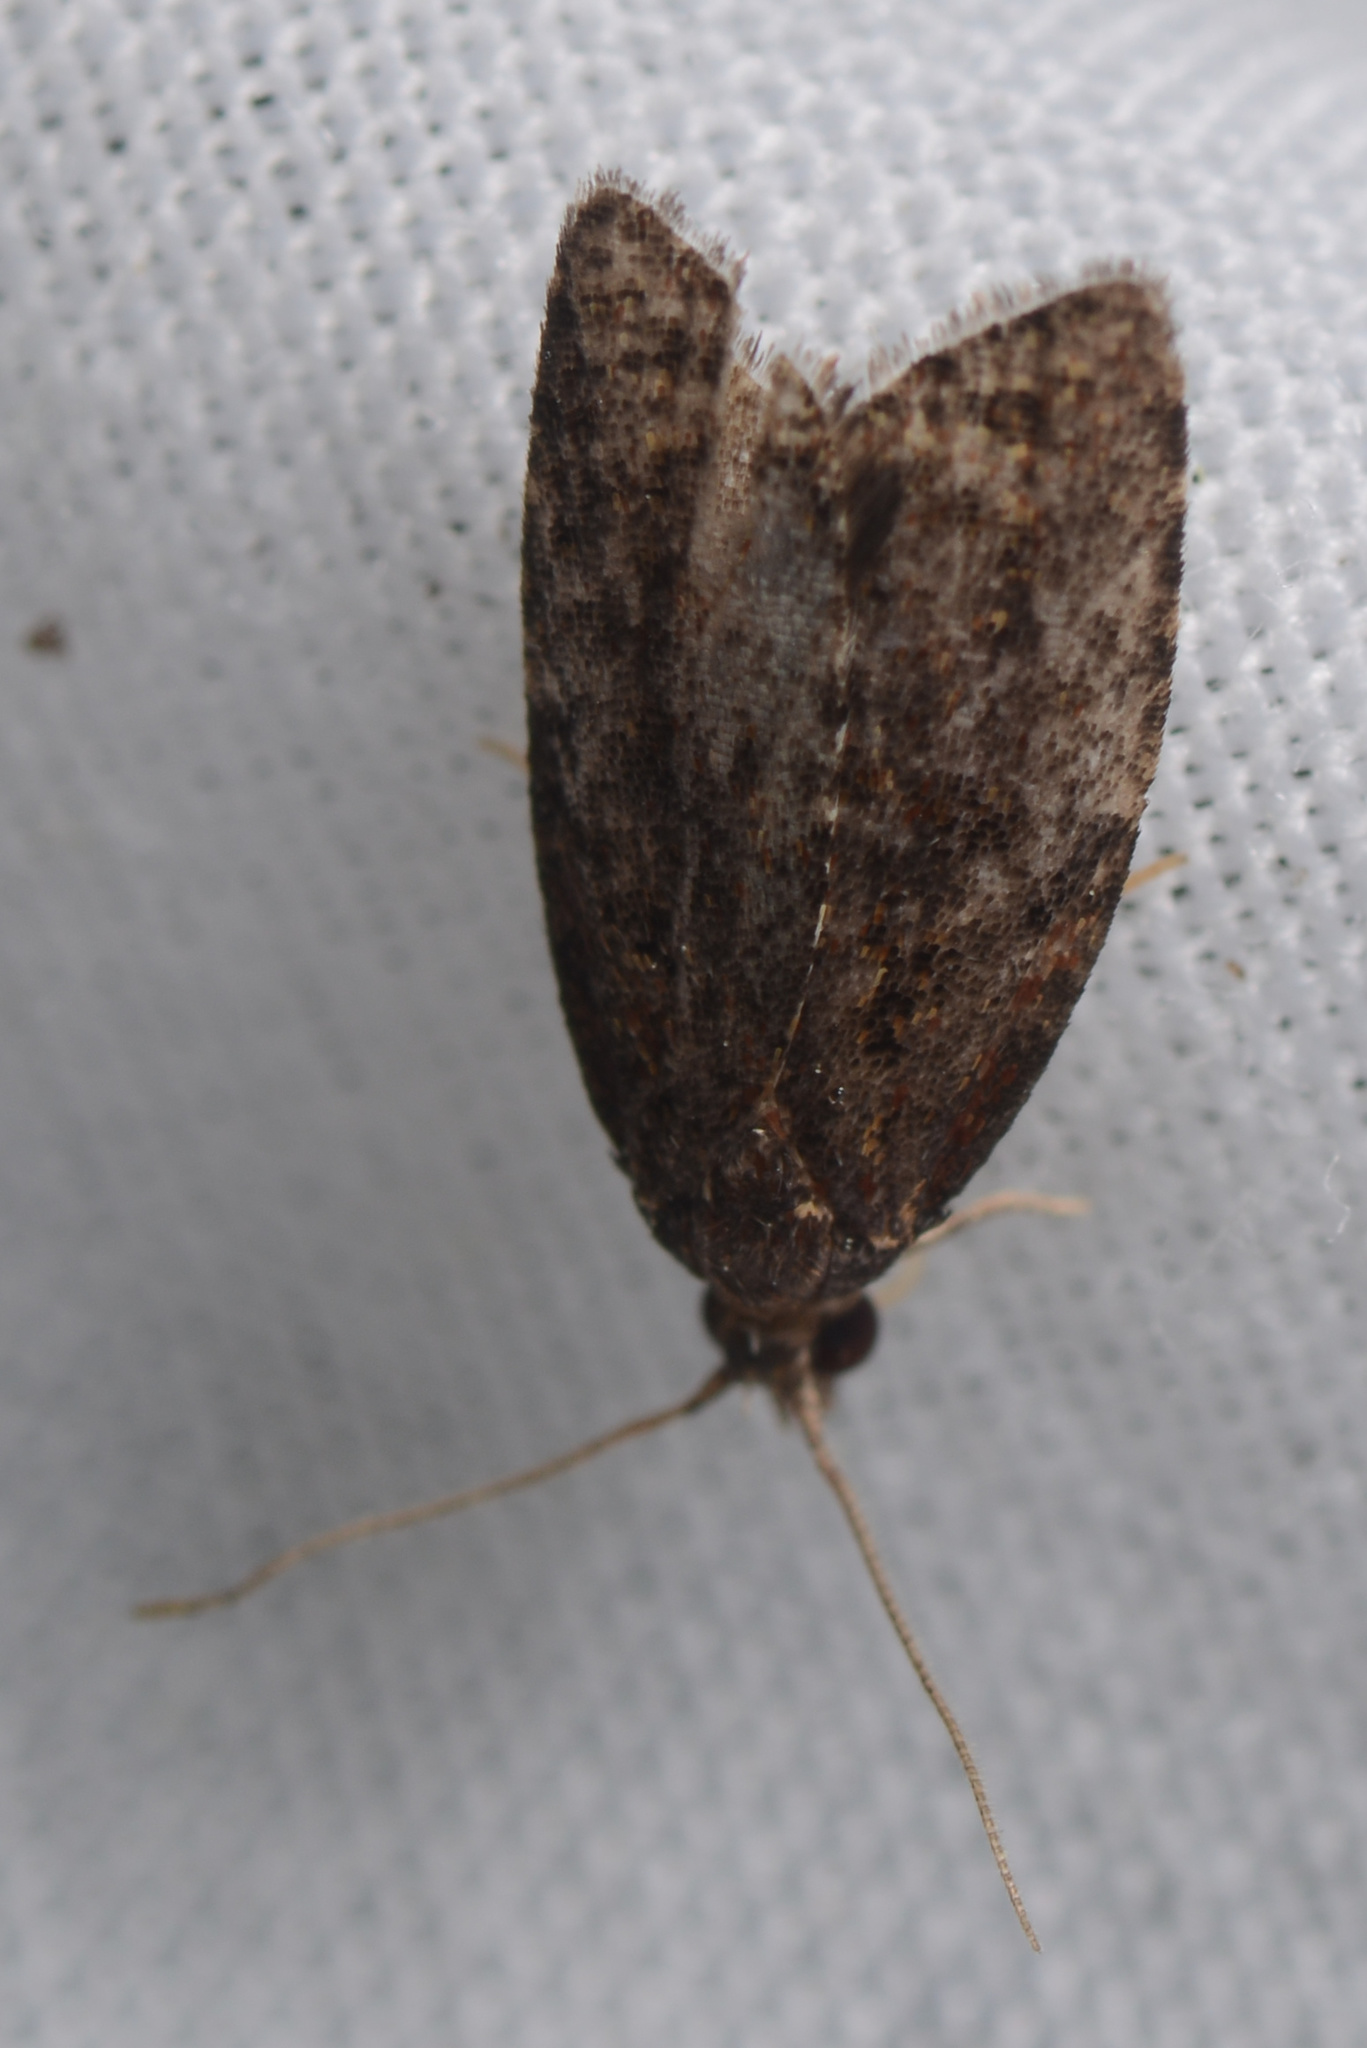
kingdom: Animalia
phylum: Arthropoda
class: Insecta
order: Lepidoptera
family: Tortricidae
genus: Capua
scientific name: Capua intractana
